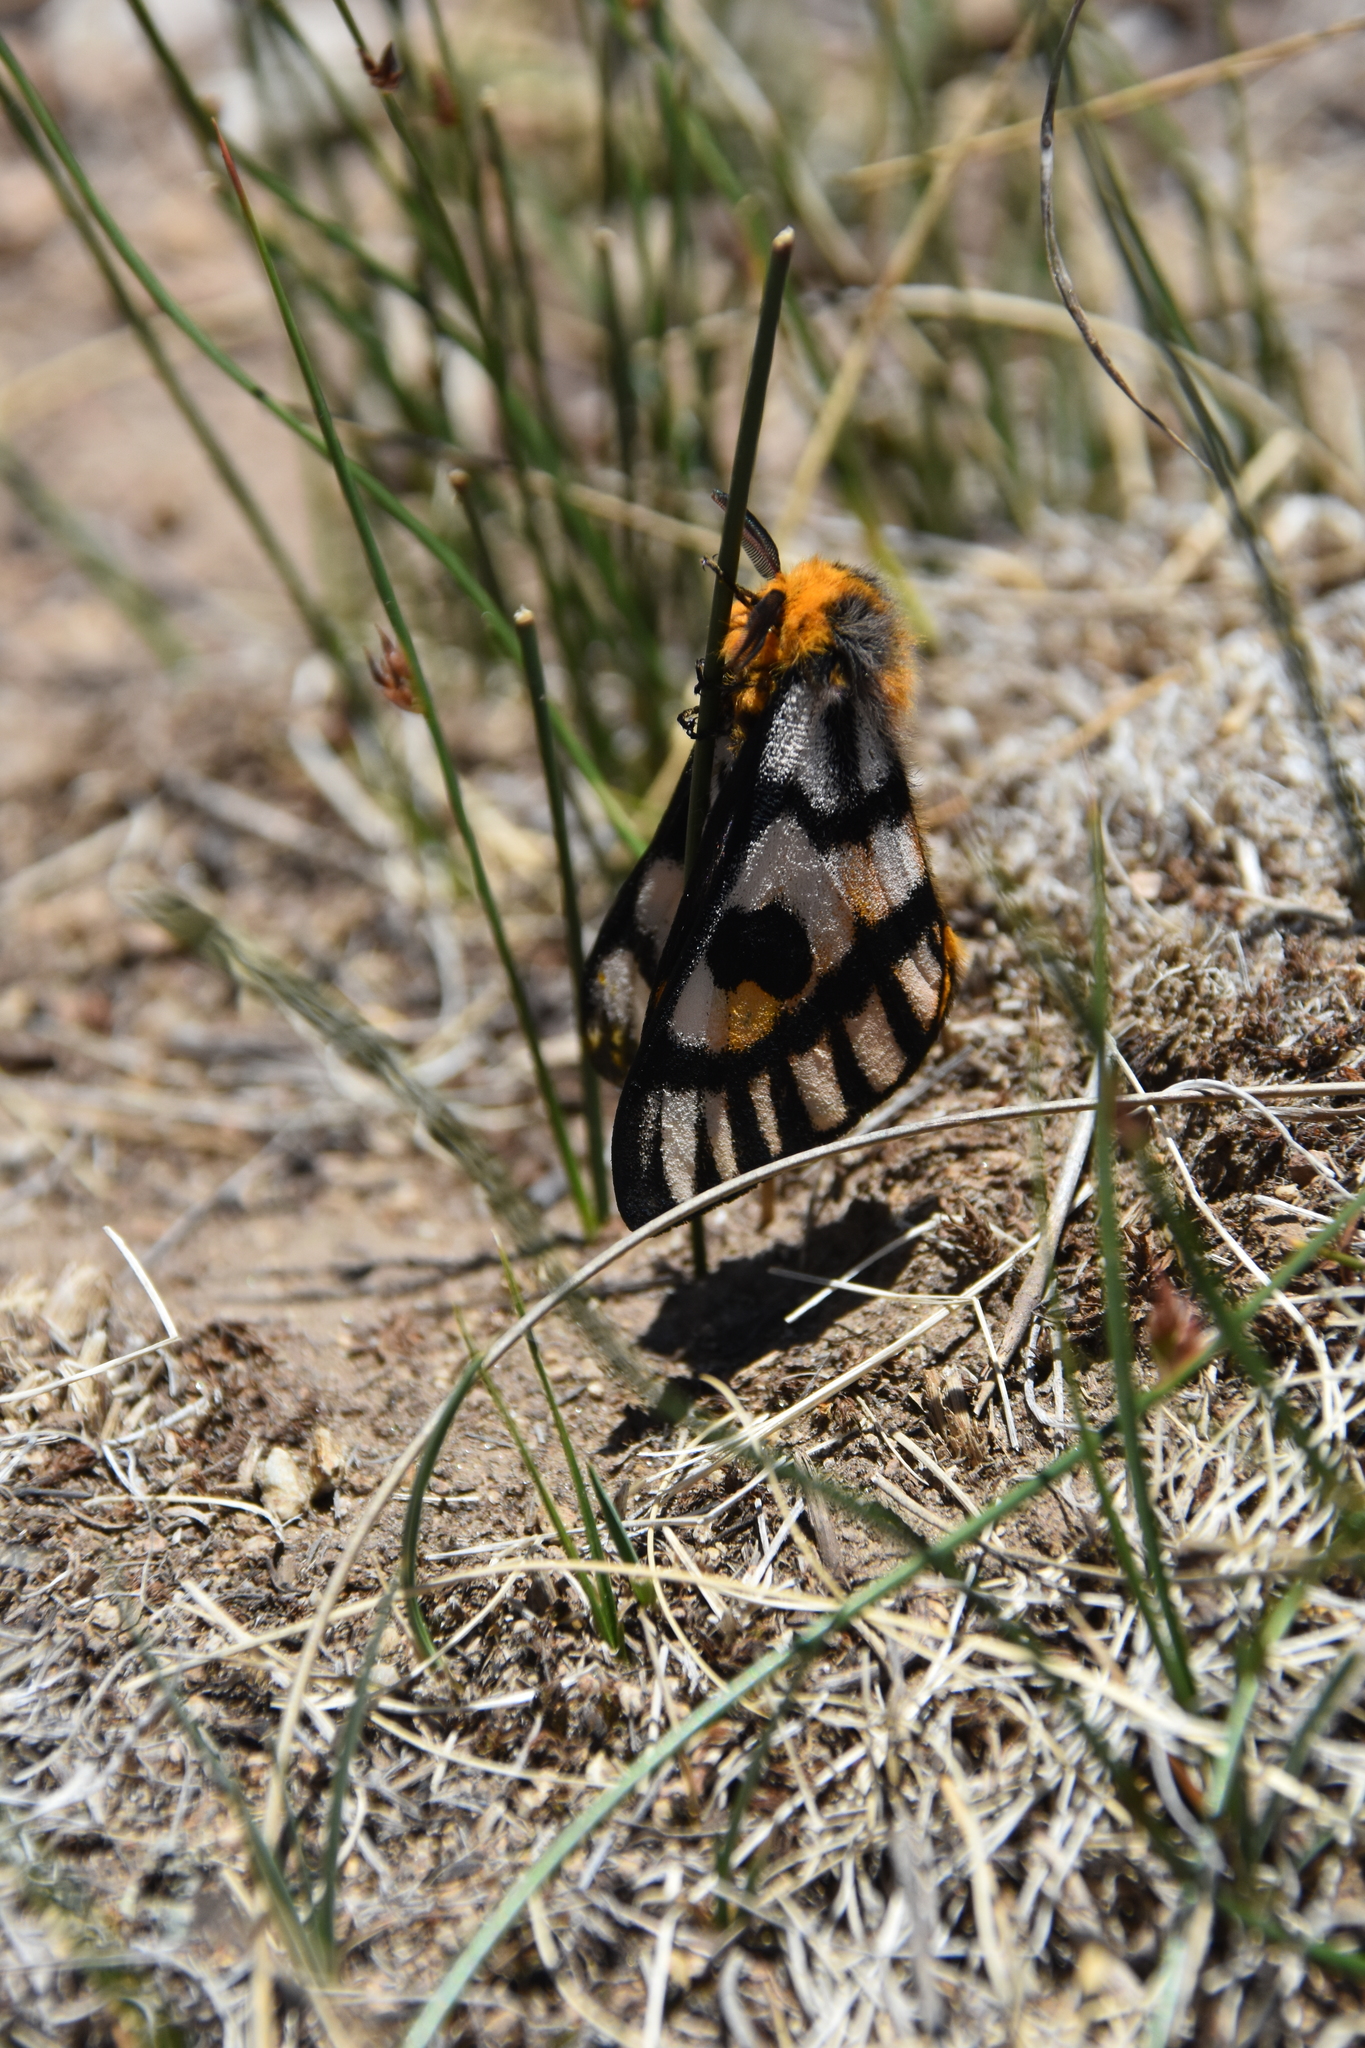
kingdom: Animalia
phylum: Arthropoda
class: Insecta
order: Lepidoptera
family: Saturniidae
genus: Hemileuca
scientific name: Hemileuca eglanterina
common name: Western sheepmoth
